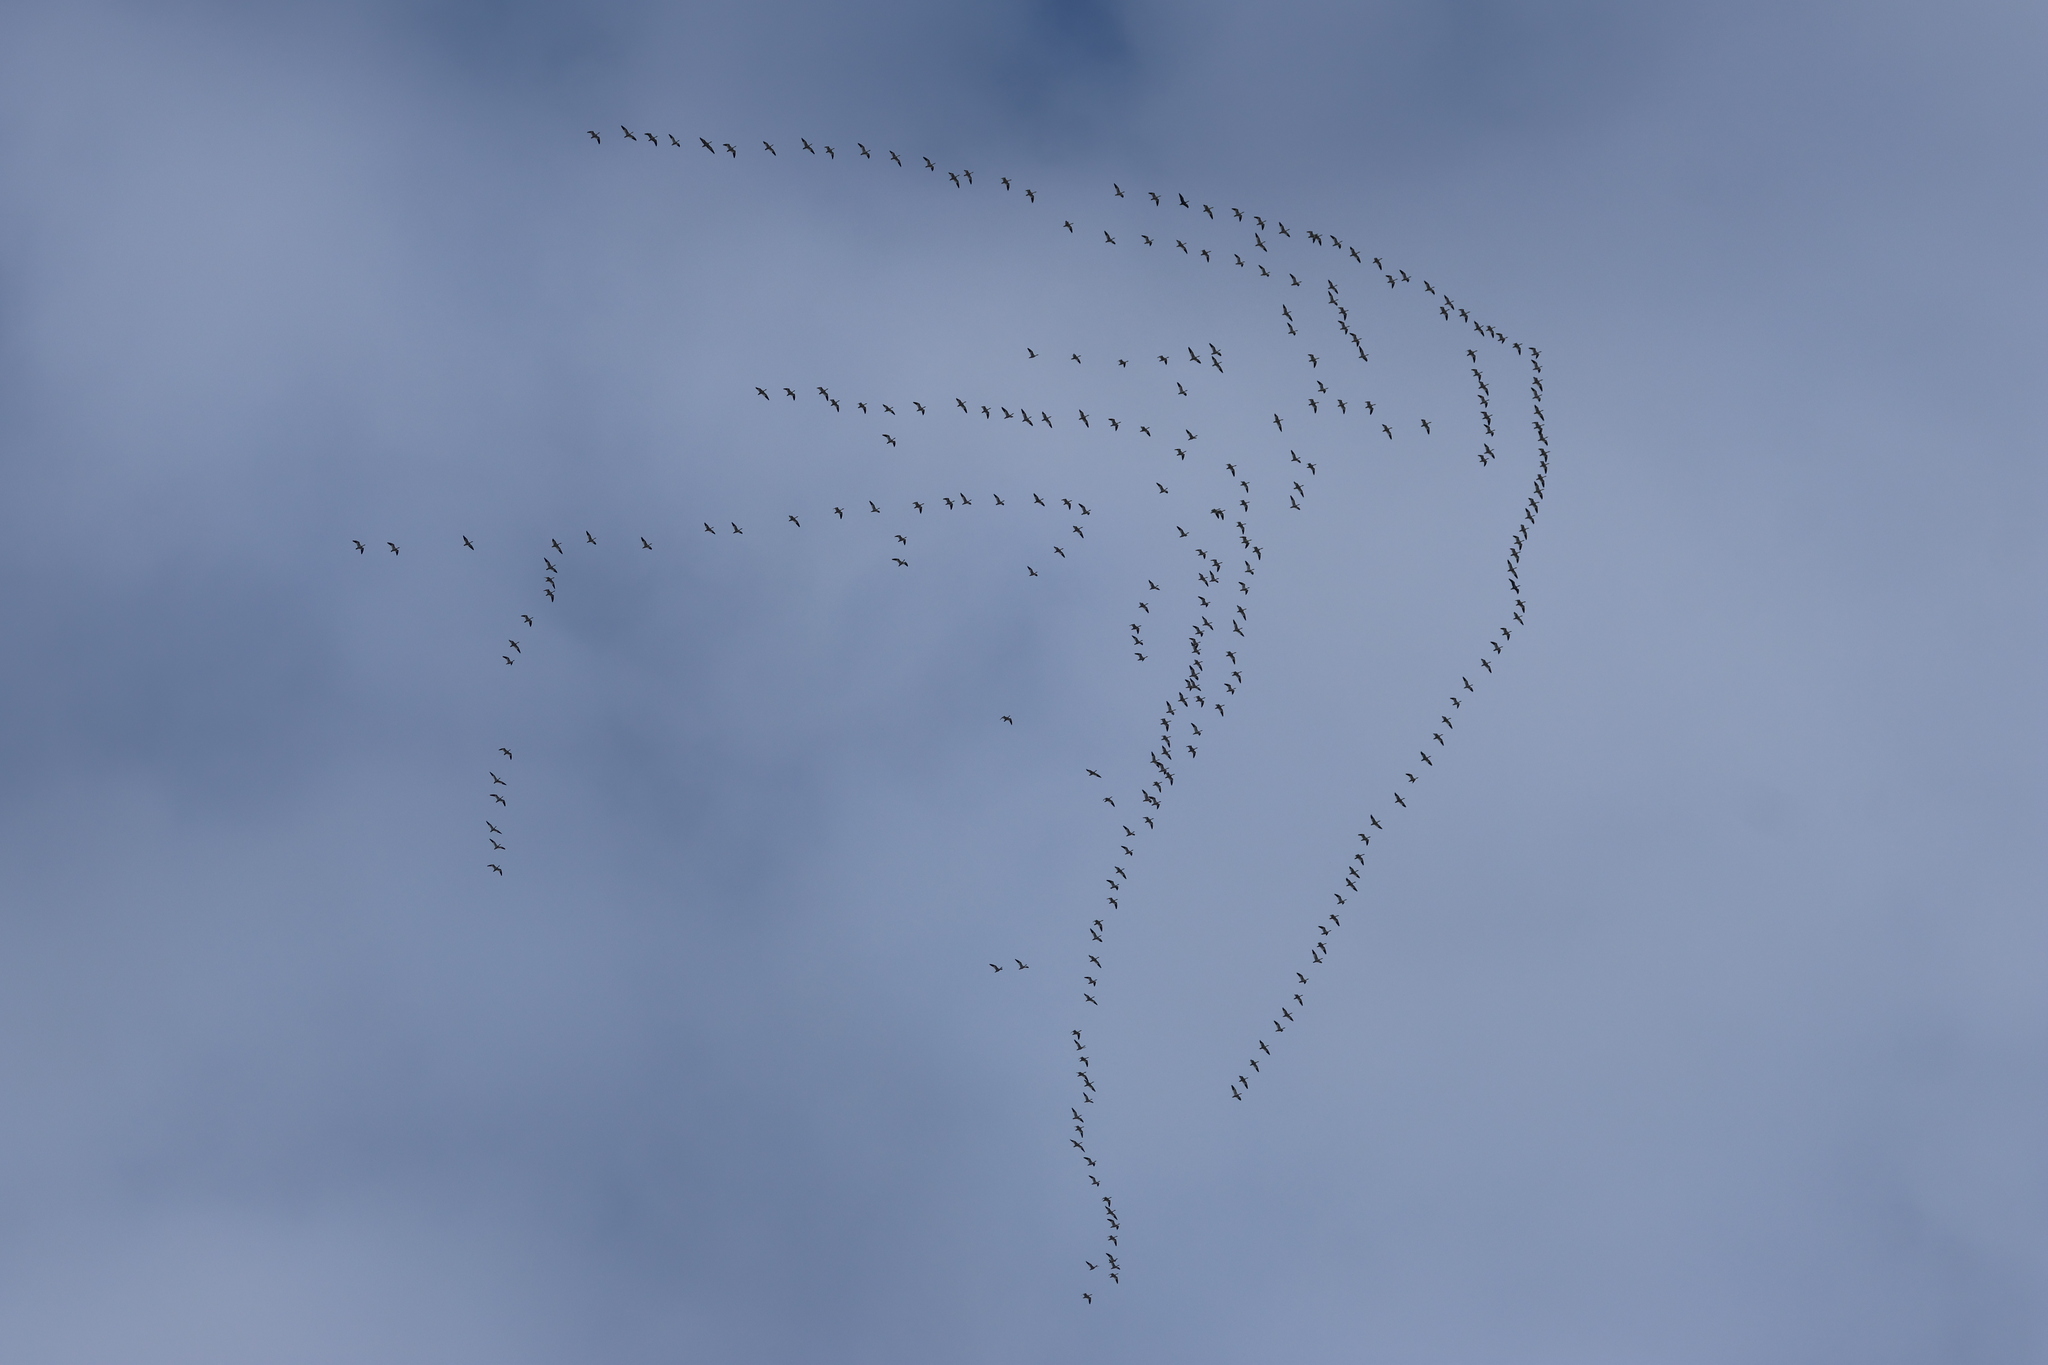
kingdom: Animalia
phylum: Chordata
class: Aves
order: Anseriformes
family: Anatidae
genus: Anser
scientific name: Anser caerulescens
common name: Snow goose
